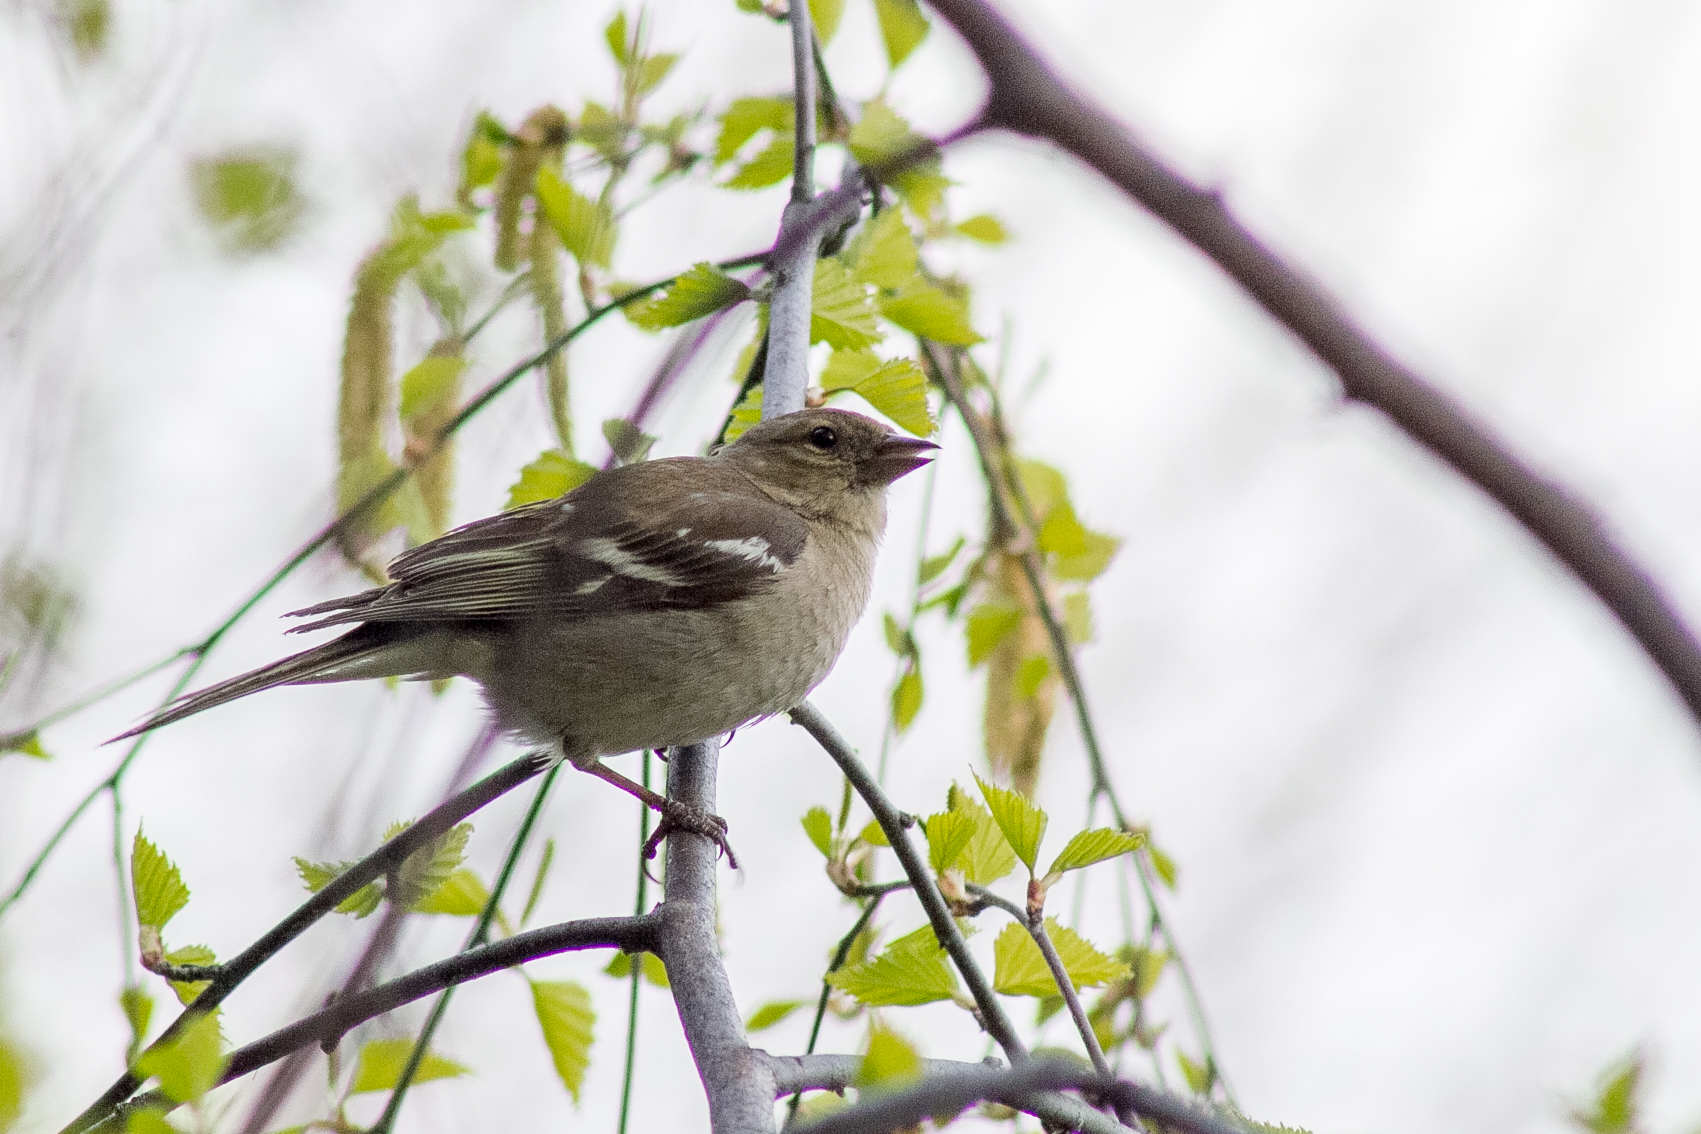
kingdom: Animalia
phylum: Chordata
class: Aves
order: Passeriformes
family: Fringillidae
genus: Fringilla
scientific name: Fringilla coelebs
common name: Common chaffinch
